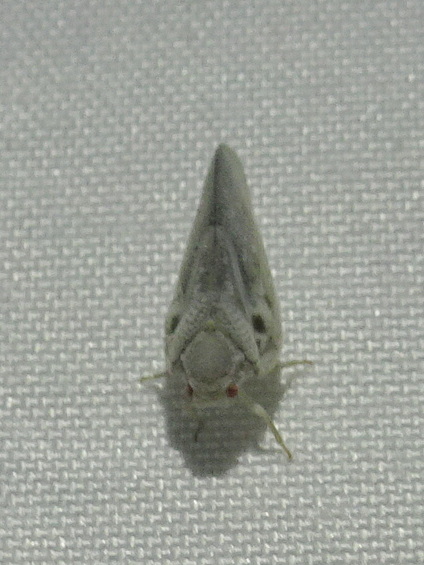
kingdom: Animalia
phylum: Arthropoda
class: Insecta
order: Hemiptera
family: Flatidae
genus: Metcalfa
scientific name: Metcalfa pruinosa
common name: Citrus flatid planthopper
